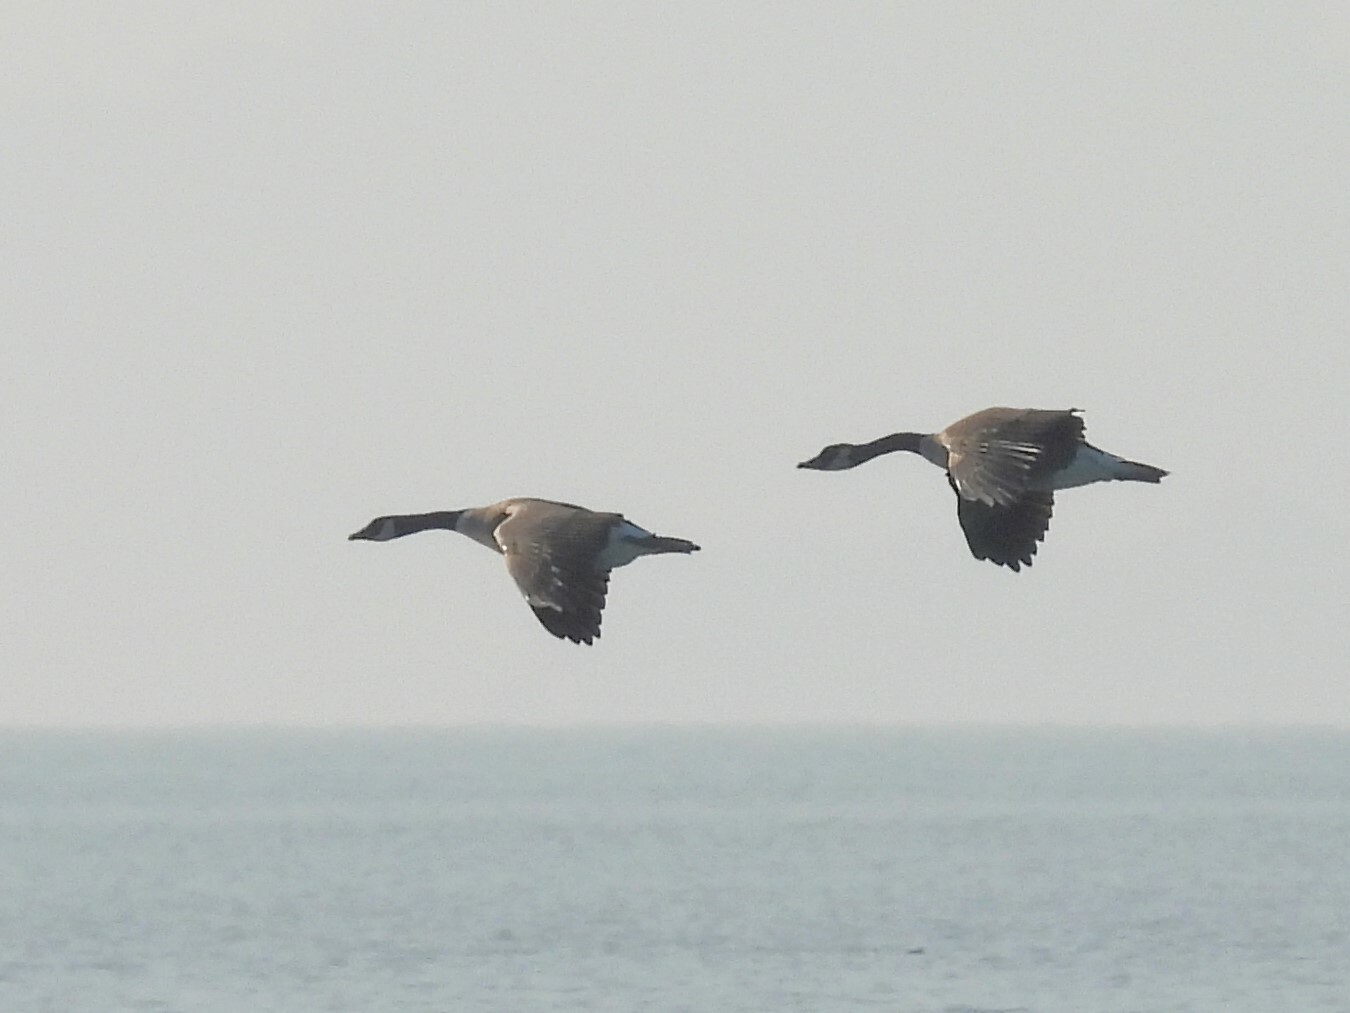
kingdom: Animalia
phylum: Chordata
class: Aves
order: Anseriformes
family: Anatidae
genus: Branta
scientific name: Branta canadensis
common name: Canada goose
